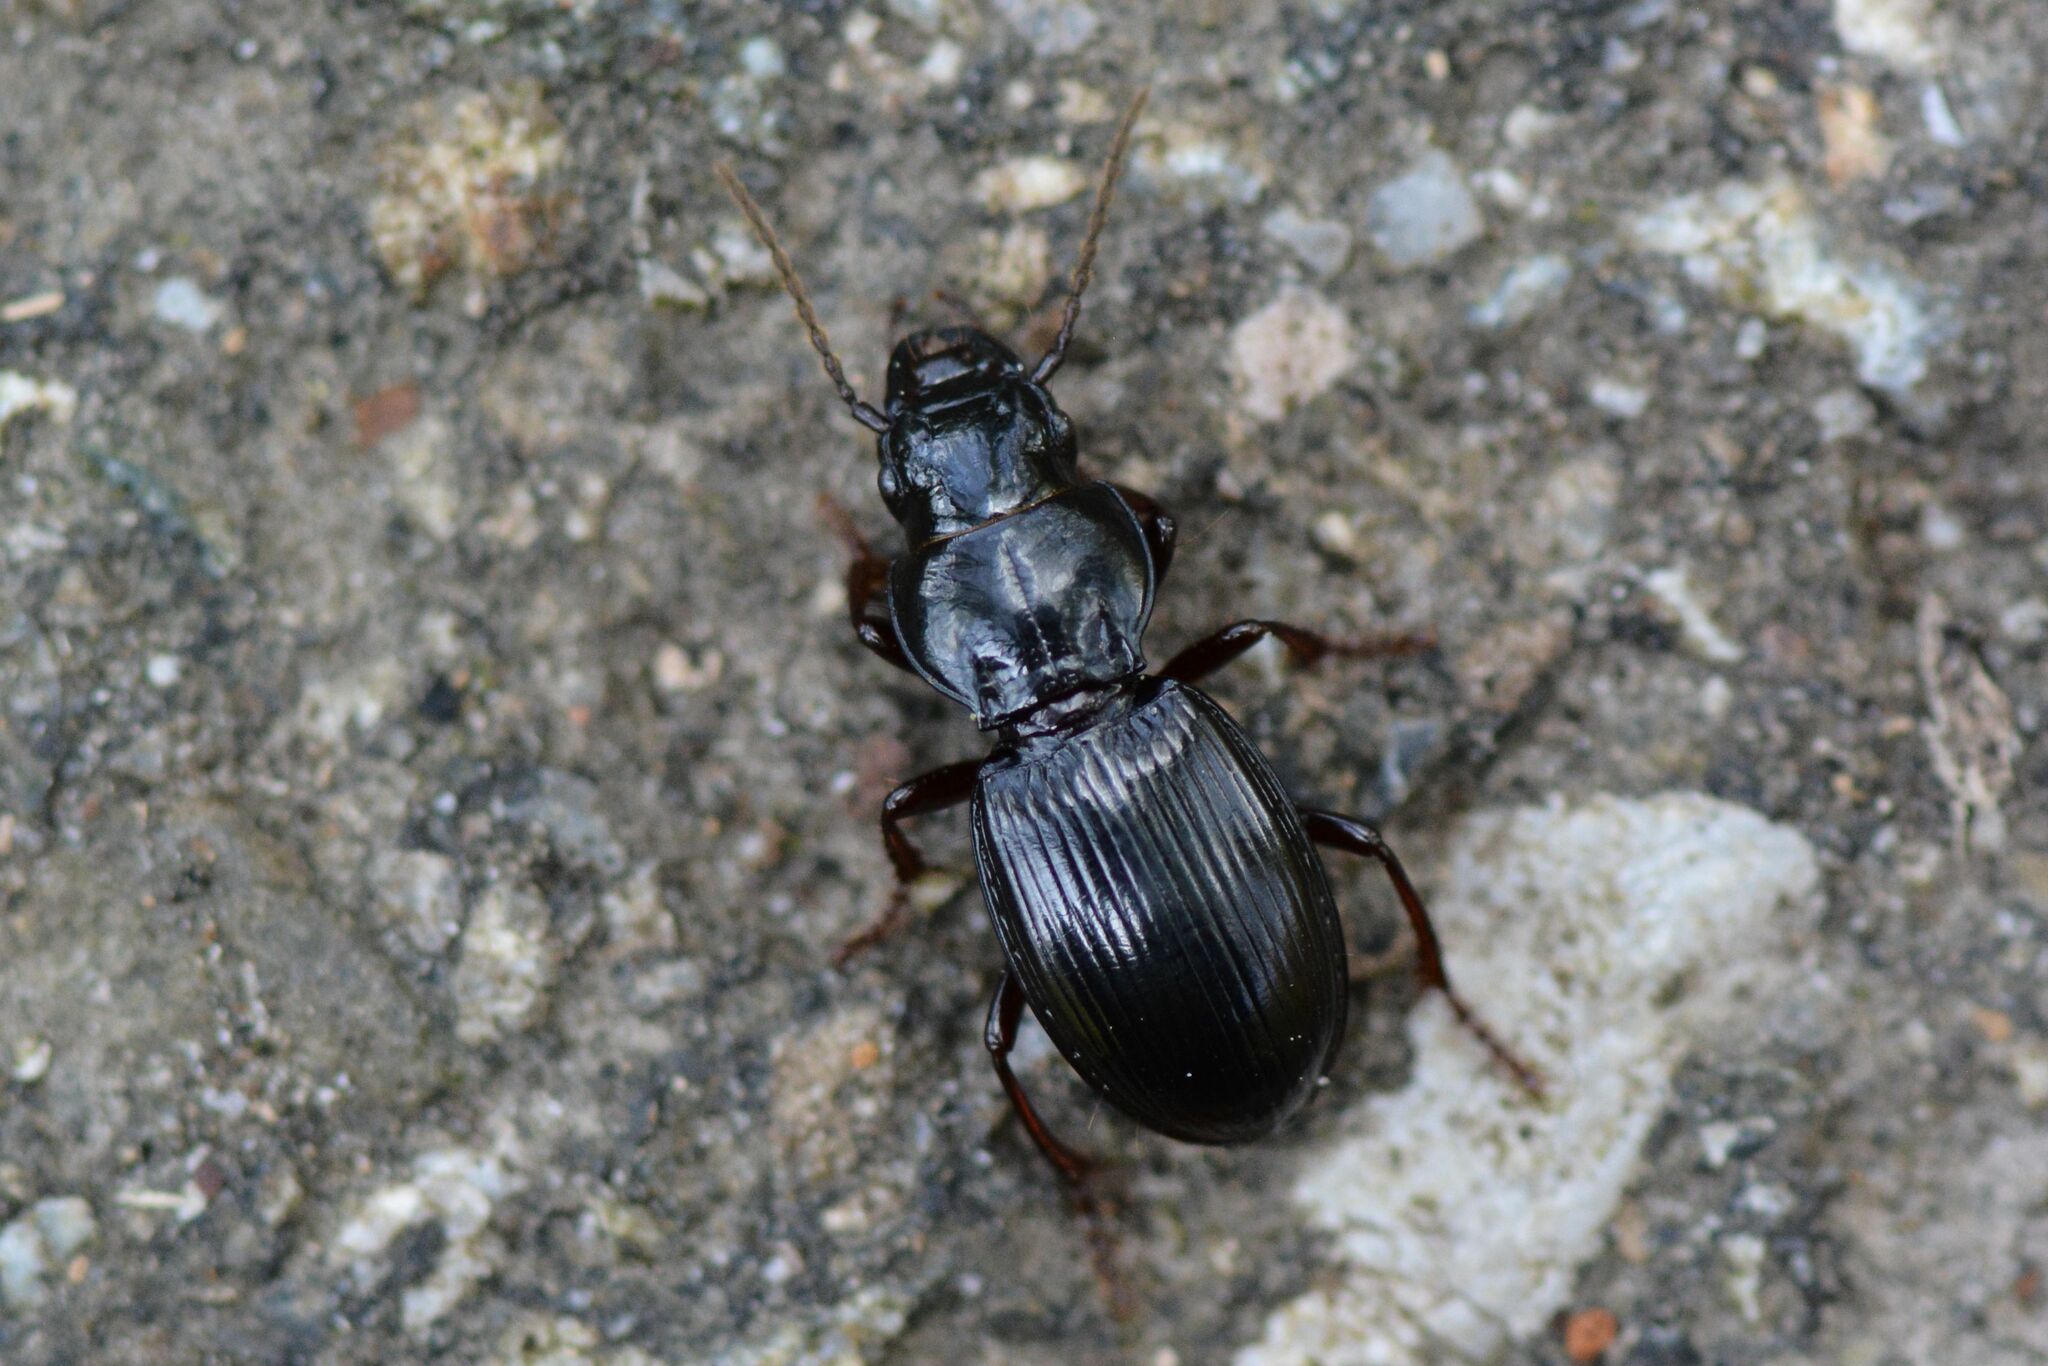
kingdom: Animalia
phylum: Arthropoda
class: Insecta
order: Coleoptera
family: Carabidae
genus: Molops
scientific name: Molops piceus
